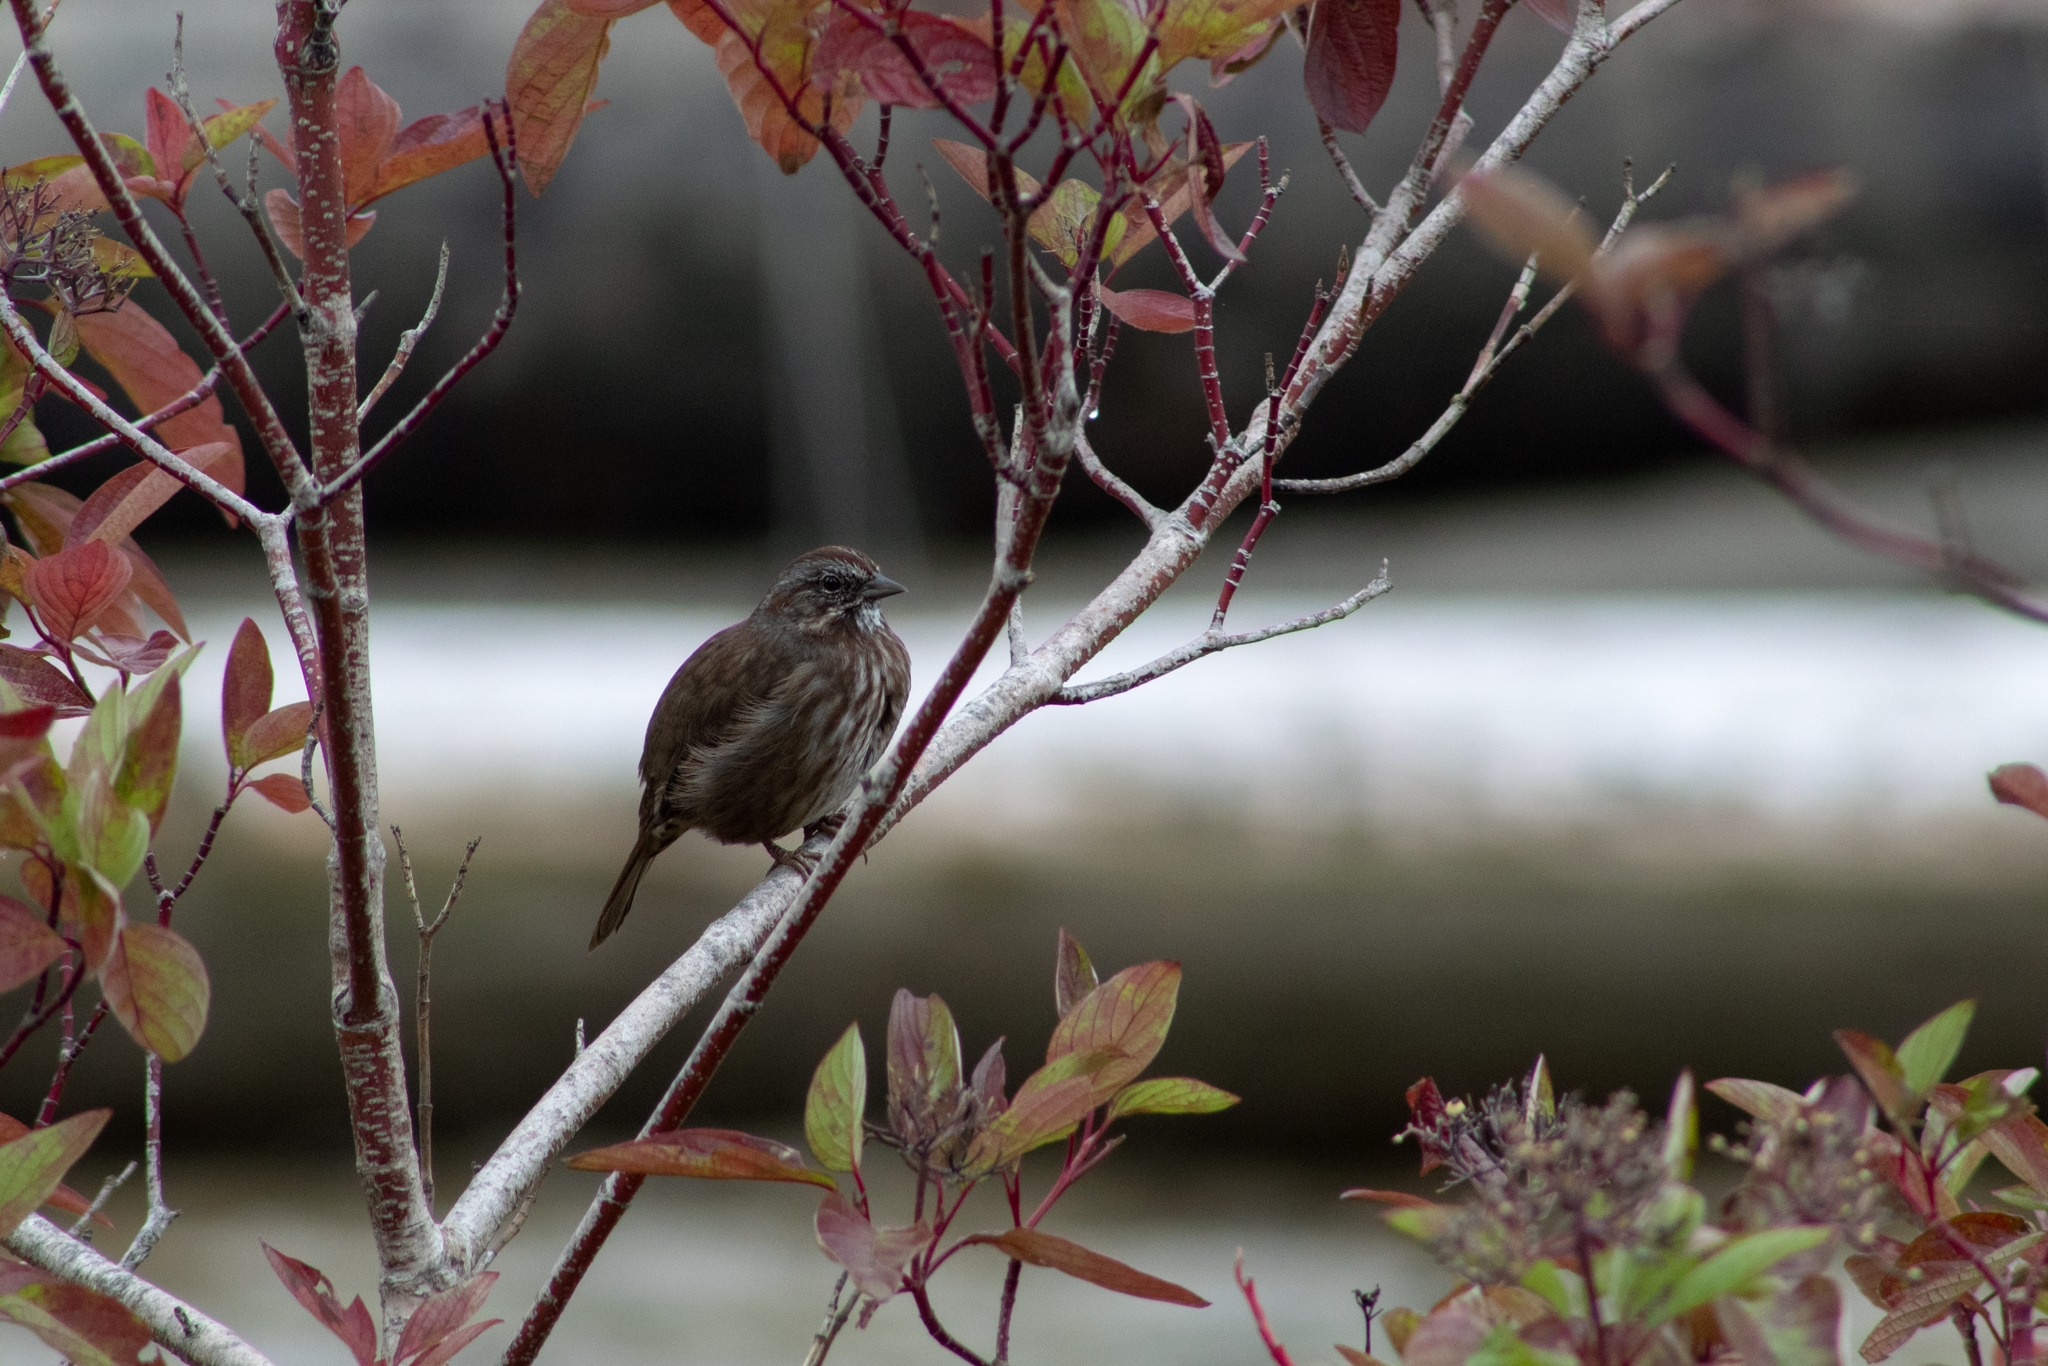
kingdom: Animalia
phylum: Chordata
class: Aves
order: Passeriformes
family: Passerellidae
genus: Melospiza
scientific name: Melospiza melodia
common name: Song sparrow
